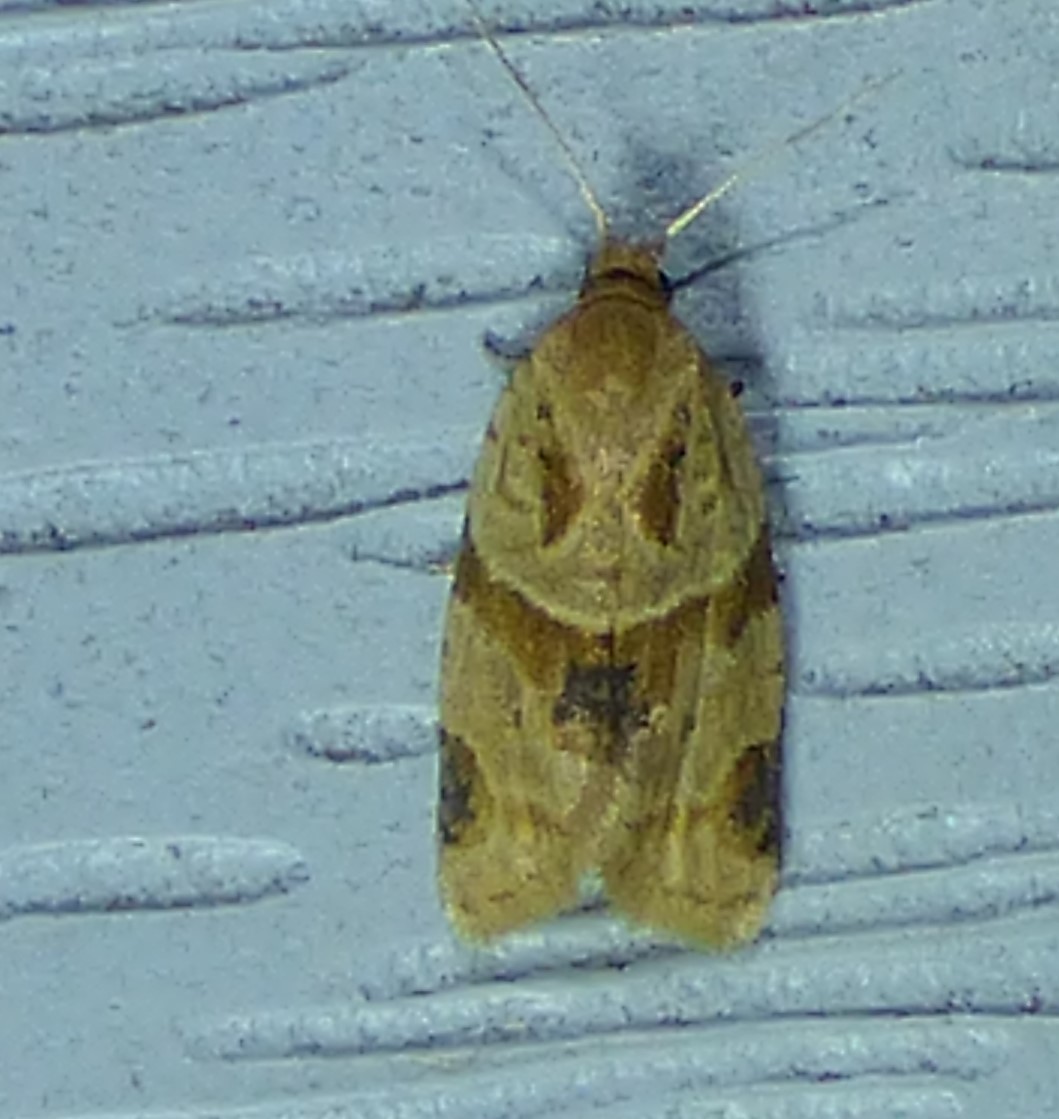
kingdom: Animalia
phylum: Arthropoda
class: Insecta
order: Lepidoptera
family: Tortricidae
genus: Clepsis
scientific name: Clepsis peritana
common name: Garden tortrix
